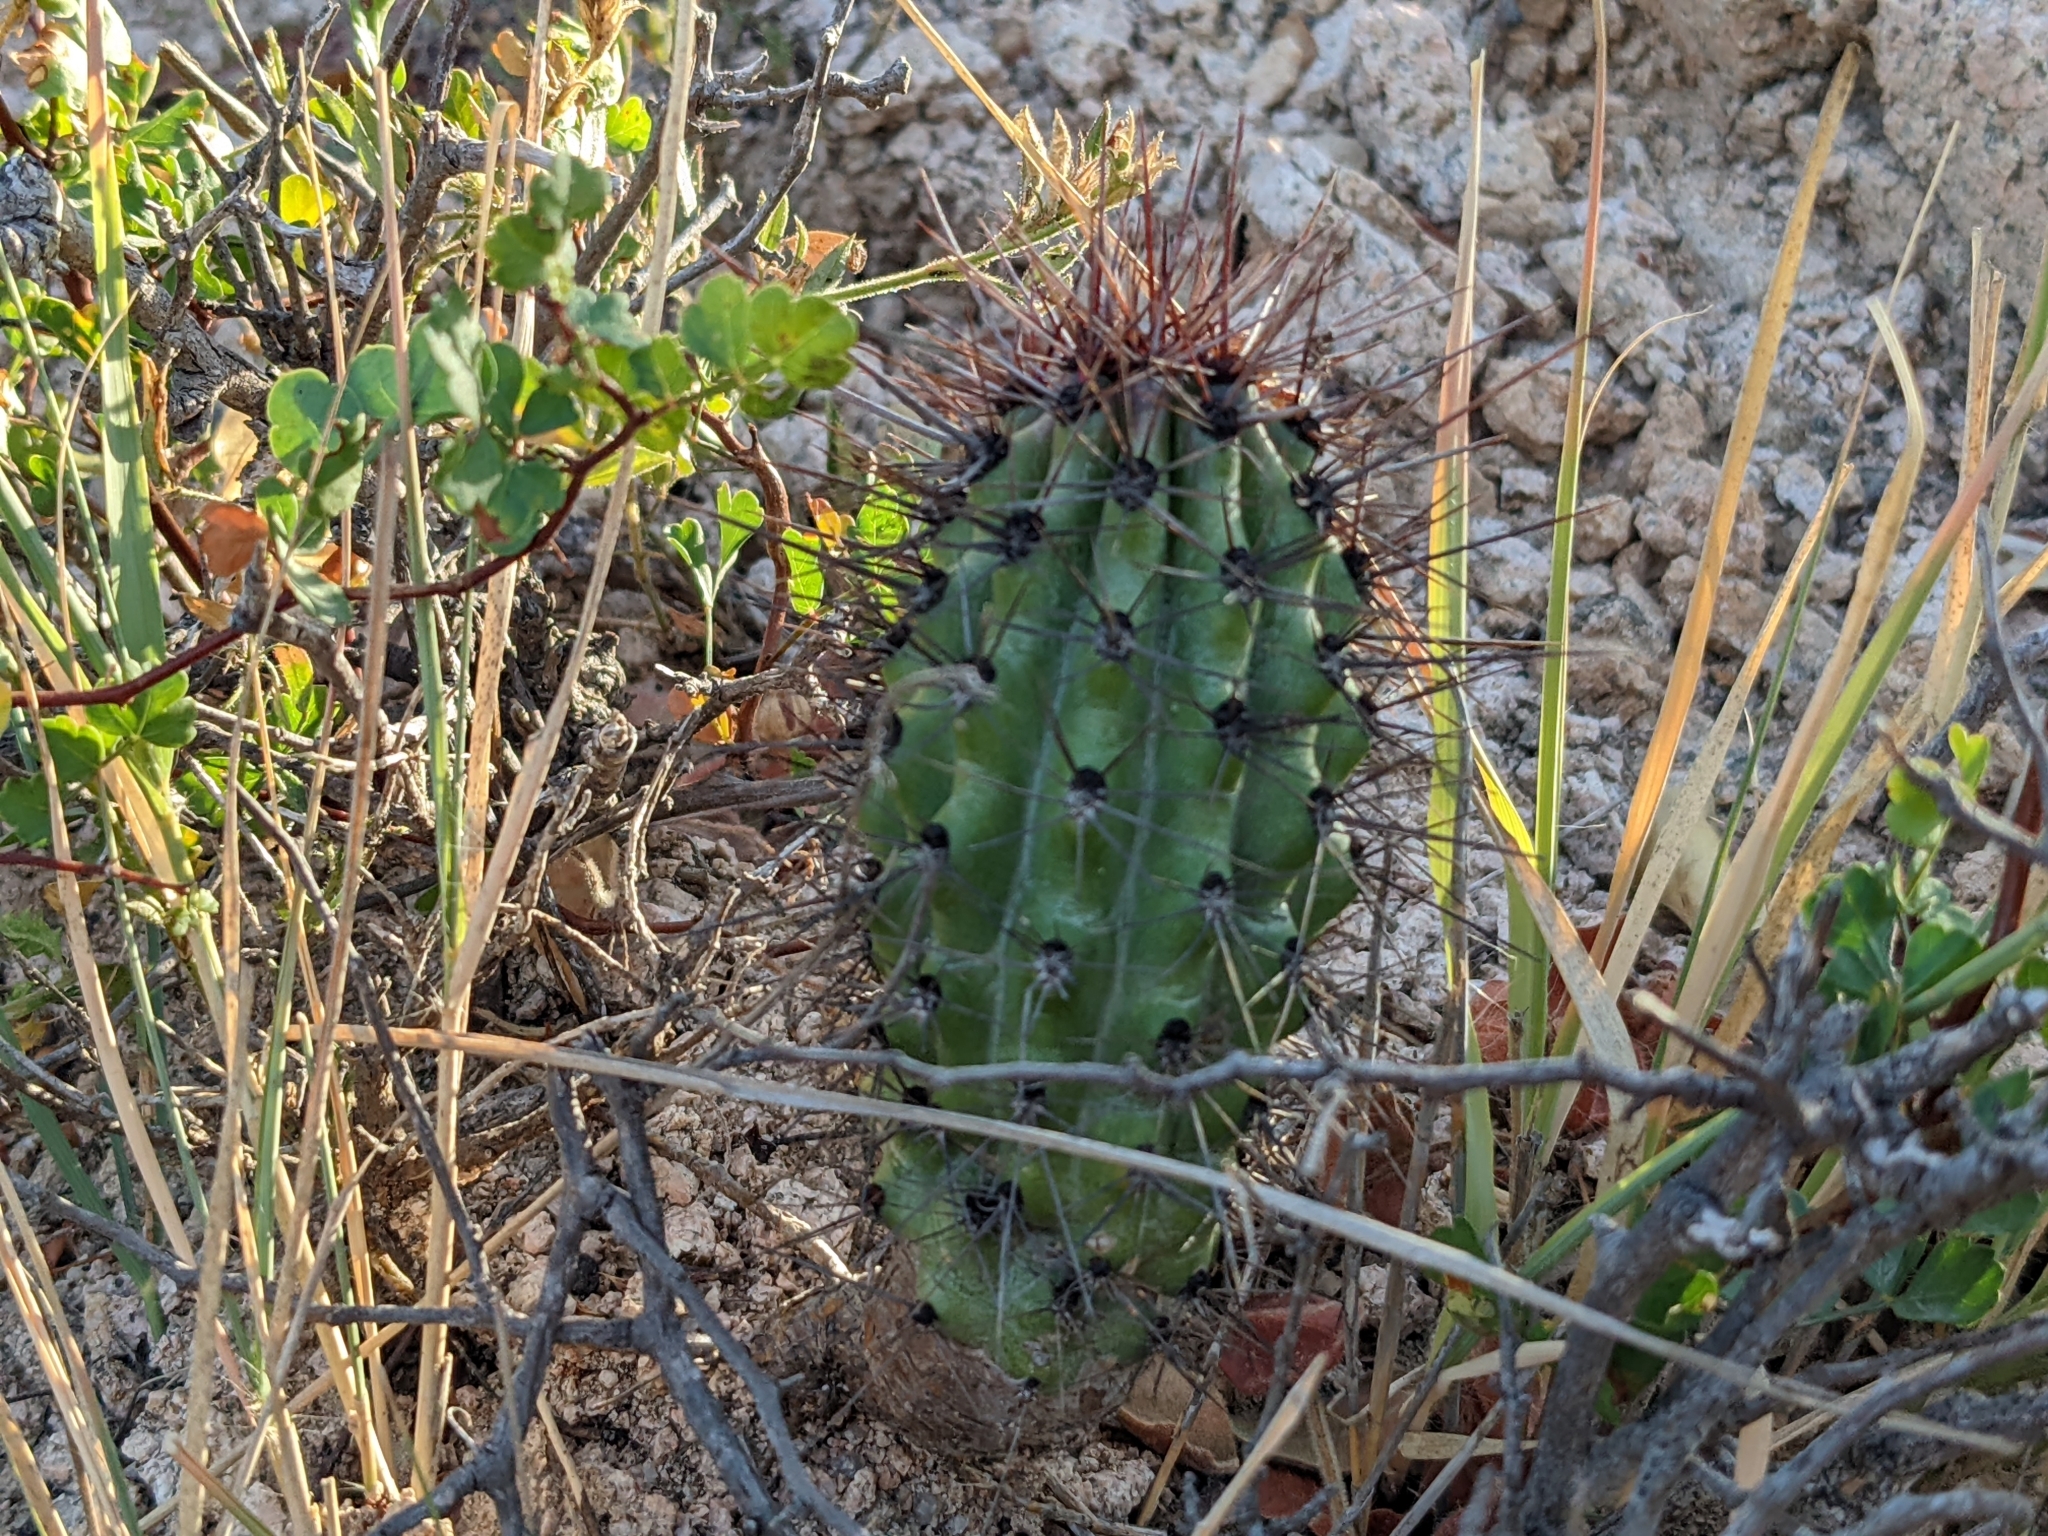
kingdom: Plantae
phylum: Tracheophyta
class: Magnoliopsida
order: Caryophyllales
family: Cactaceae
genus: Stenocereus
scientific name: Stenocereus thurberi
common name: Organ pipe cactus
